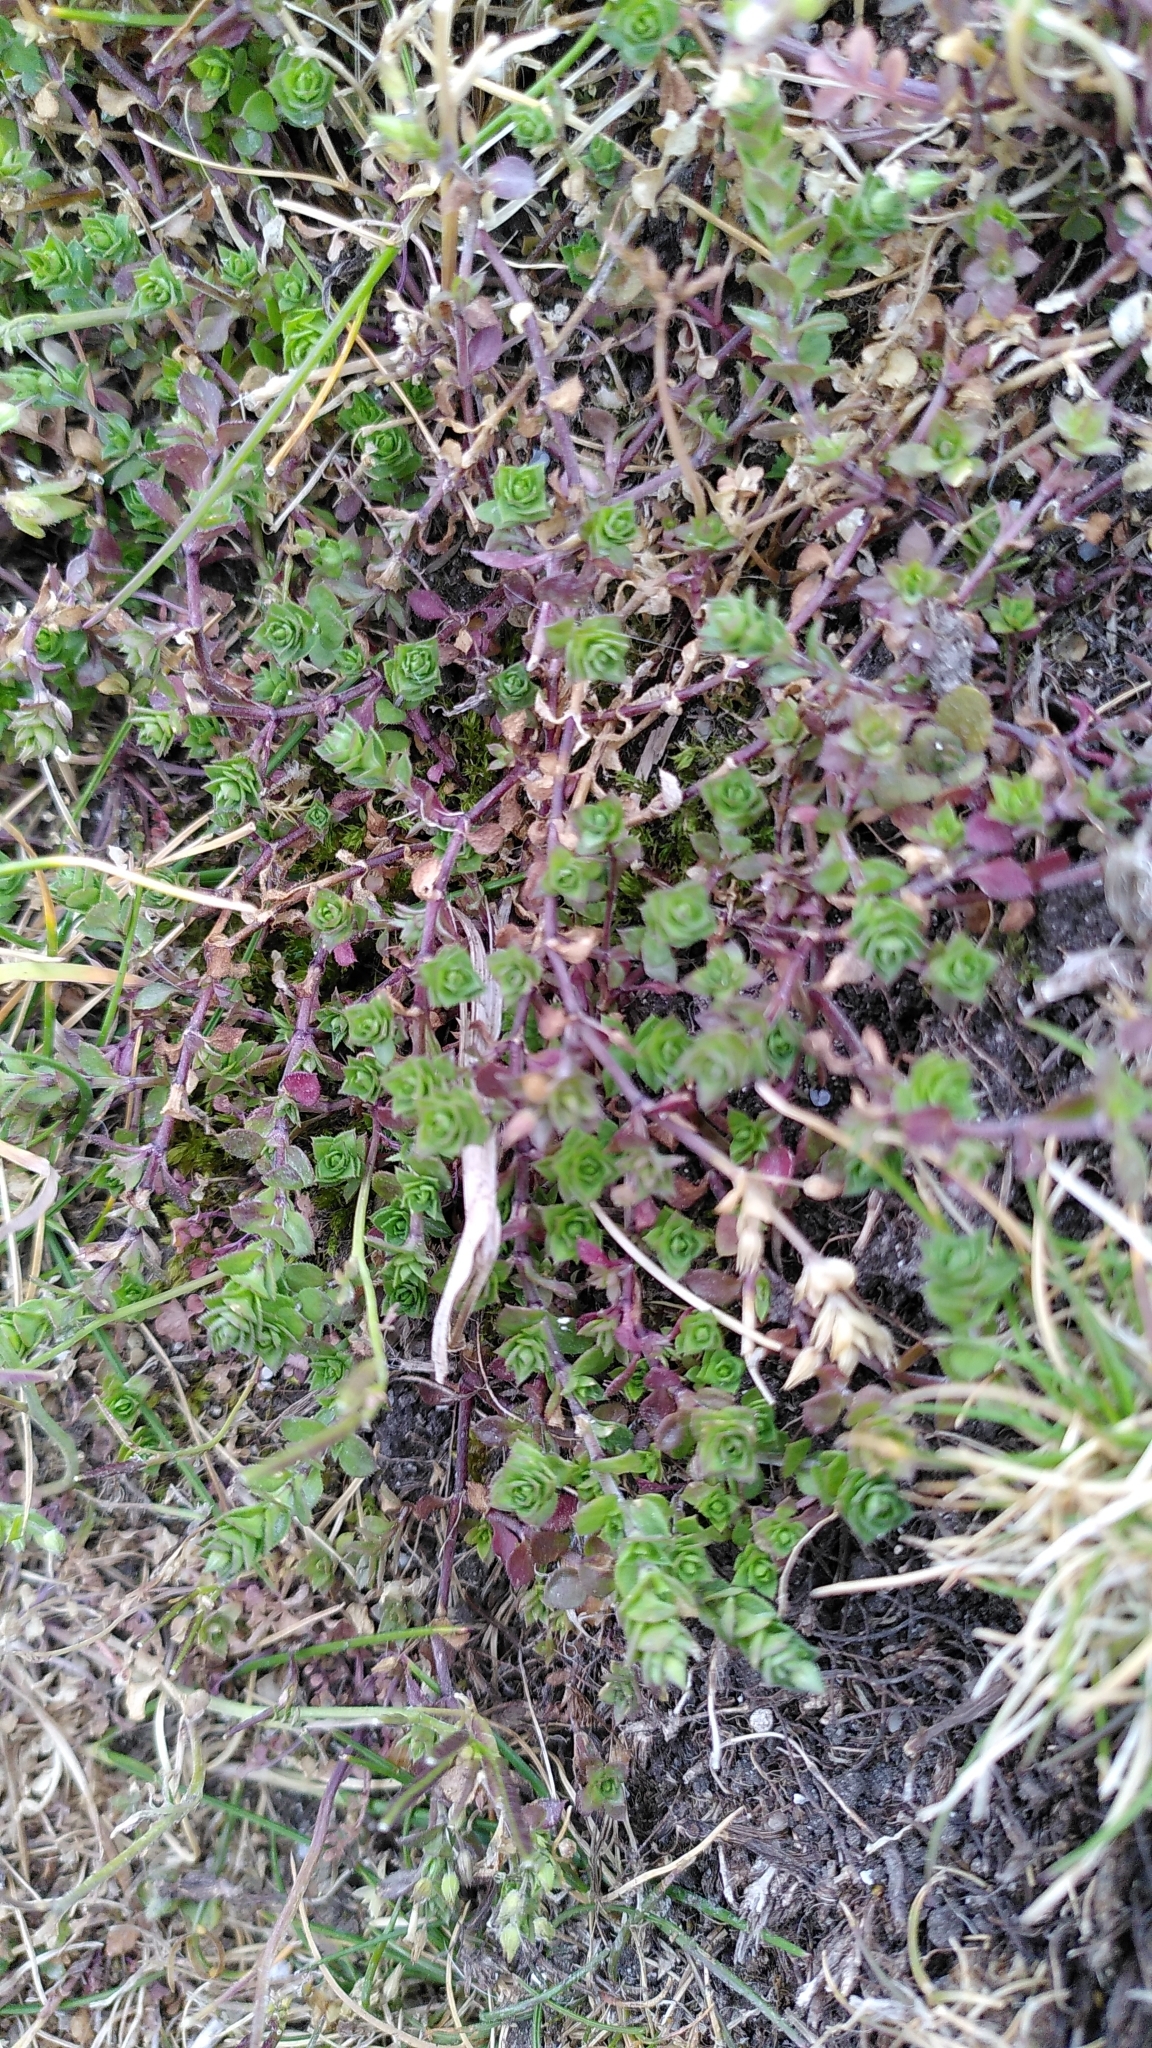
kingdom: Plantae
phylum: Tracheophyta
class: Magnoliopsida
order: Gentianales
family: Rubiaceae
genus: Cruciata
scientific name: Cruciata laevipes
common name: Crosswort
